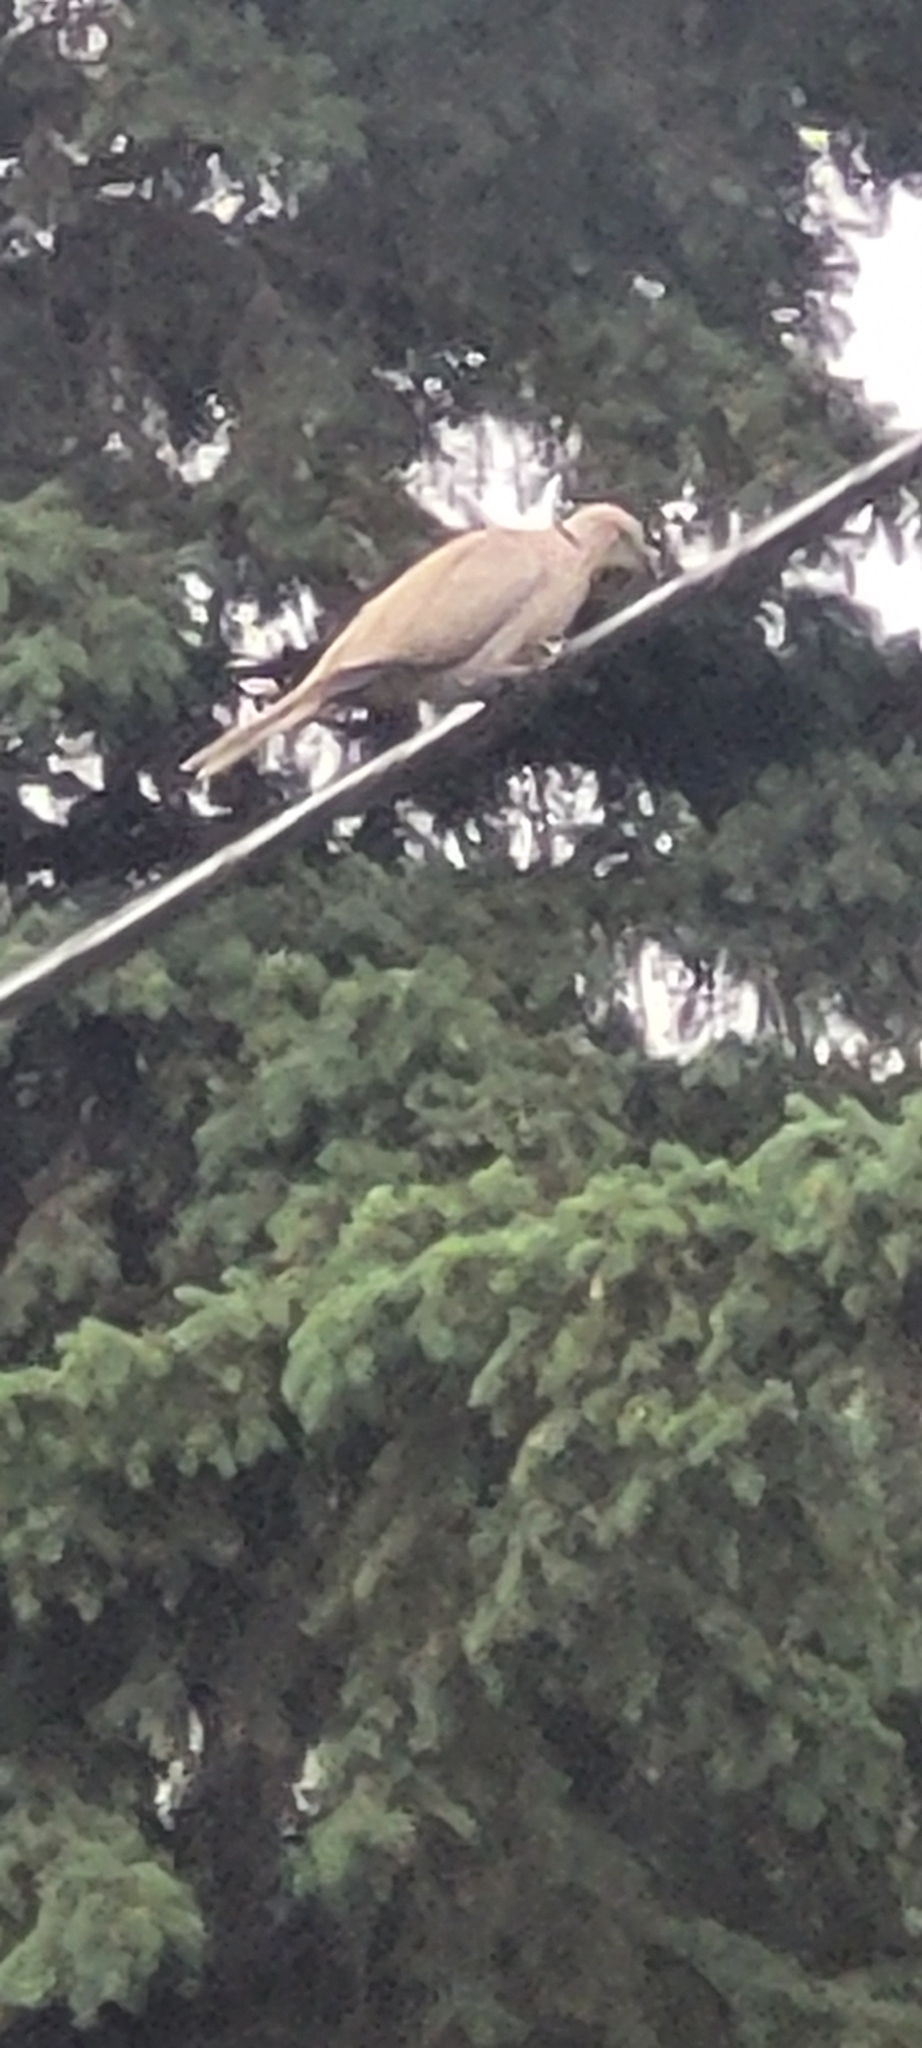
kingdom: Animalia
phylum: Chordata
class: Aves
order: Columbiformes
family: Columbidae
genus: Streptopelia
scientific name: Streptopelia decaocto
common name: Eurasian collared dove
